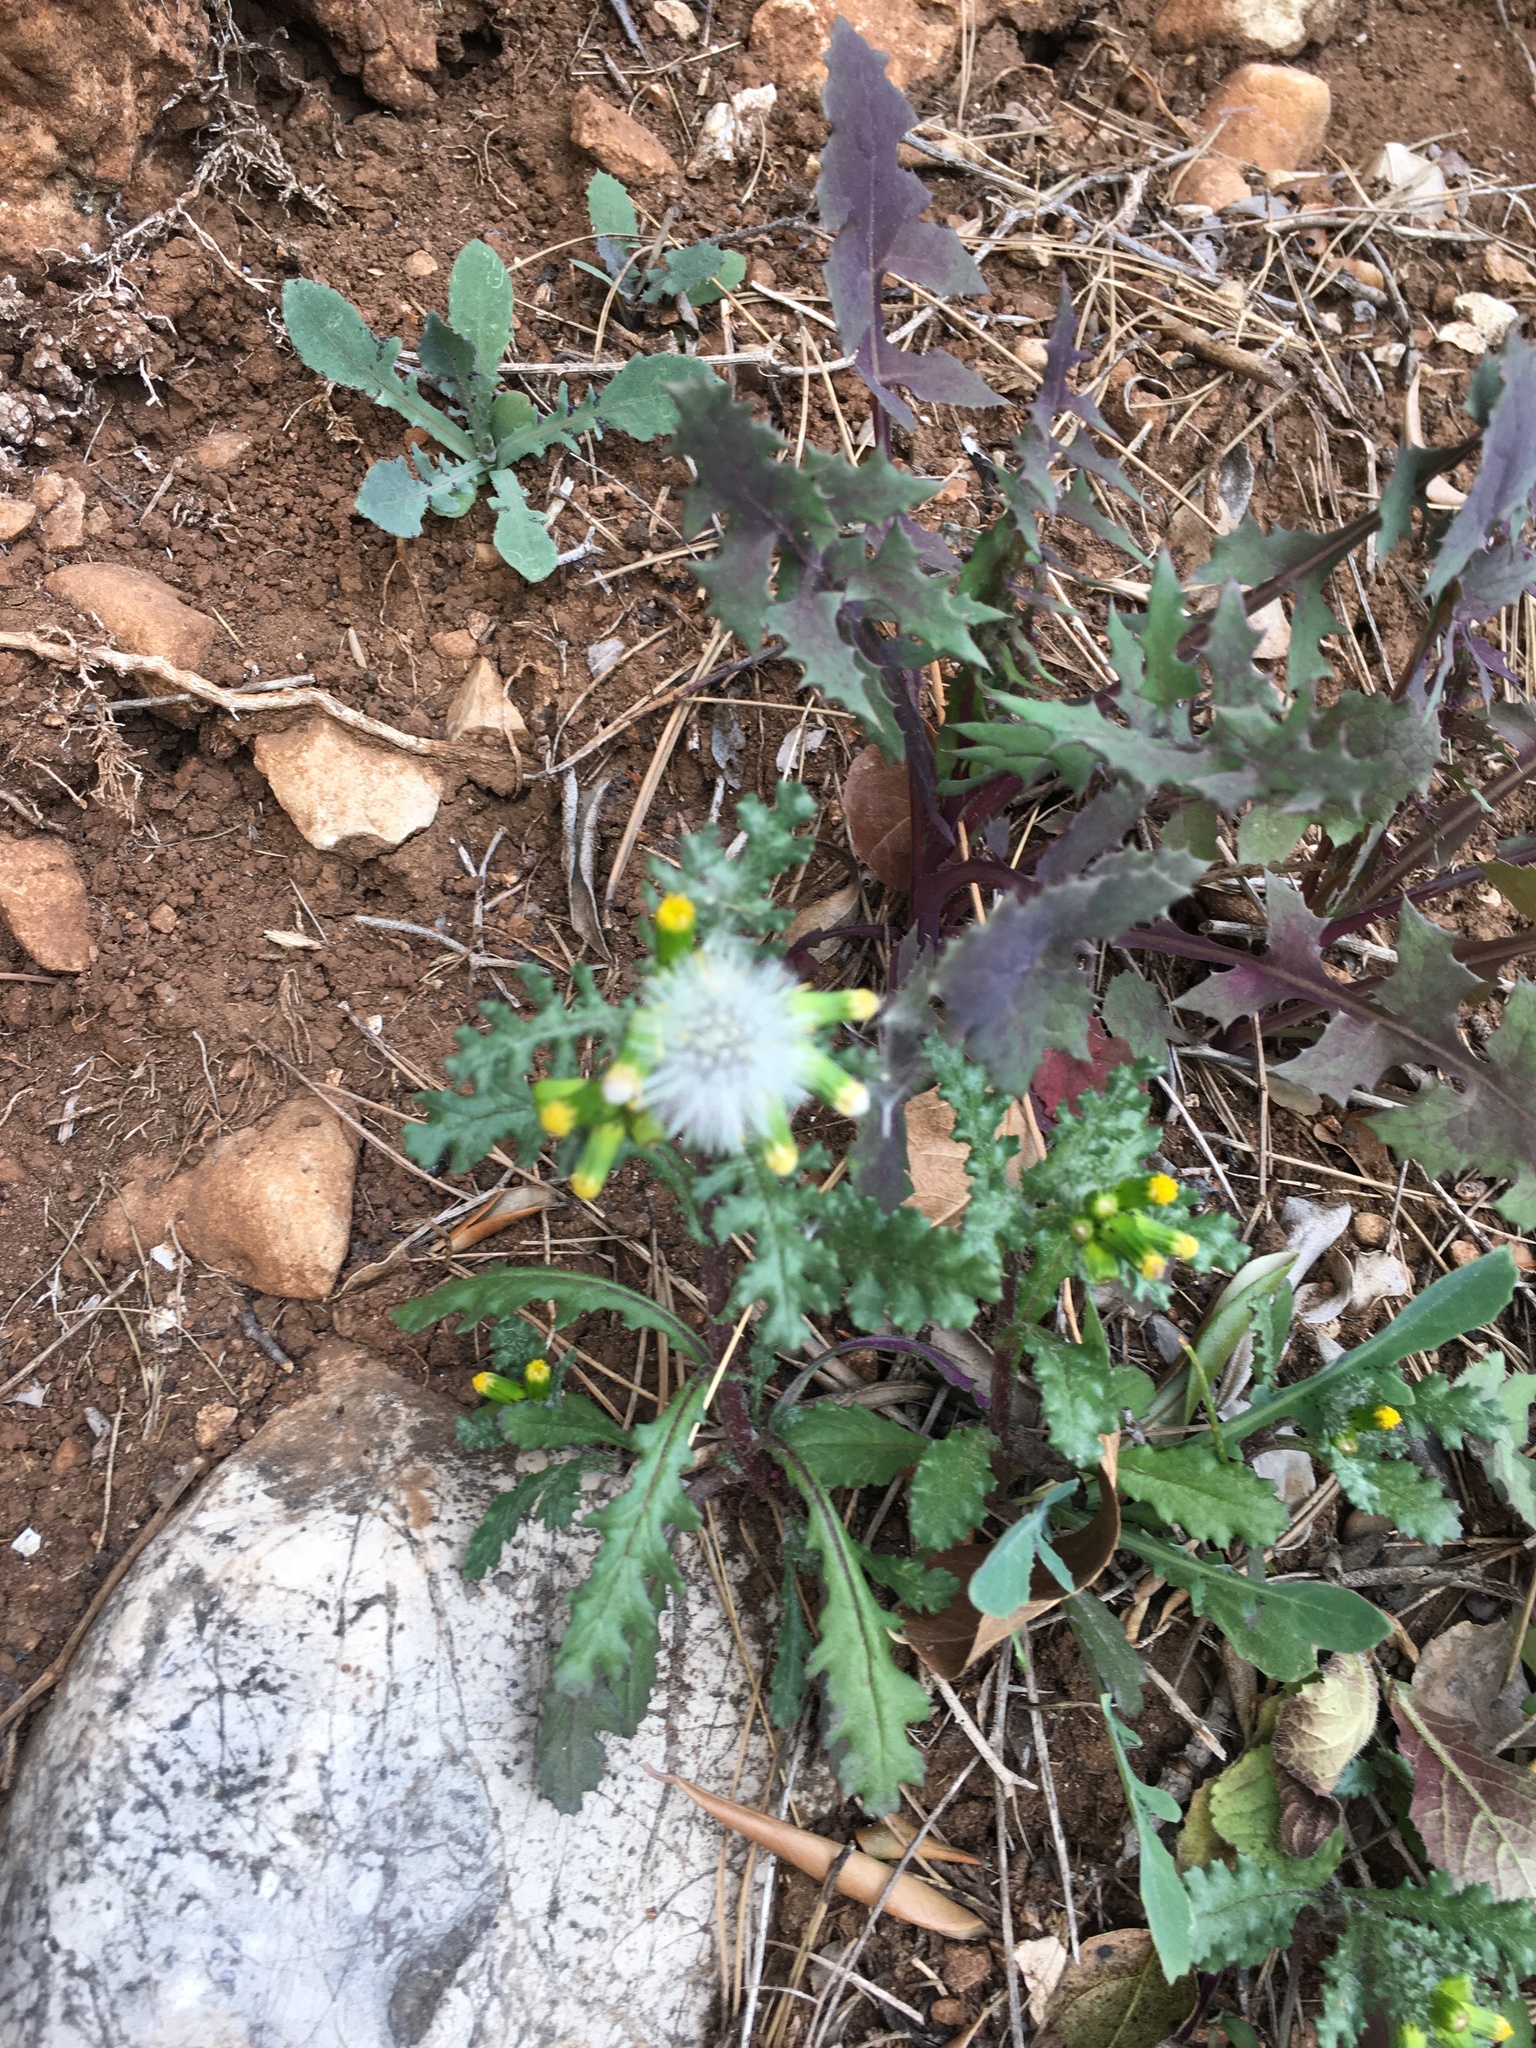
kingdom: Plantae
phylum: Tracheophyta
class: Magnoliopsida
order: Asterales
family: Asteraceae
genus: Senecio
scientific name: Senecio vulgaris
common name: Old-man-in-the-spring
